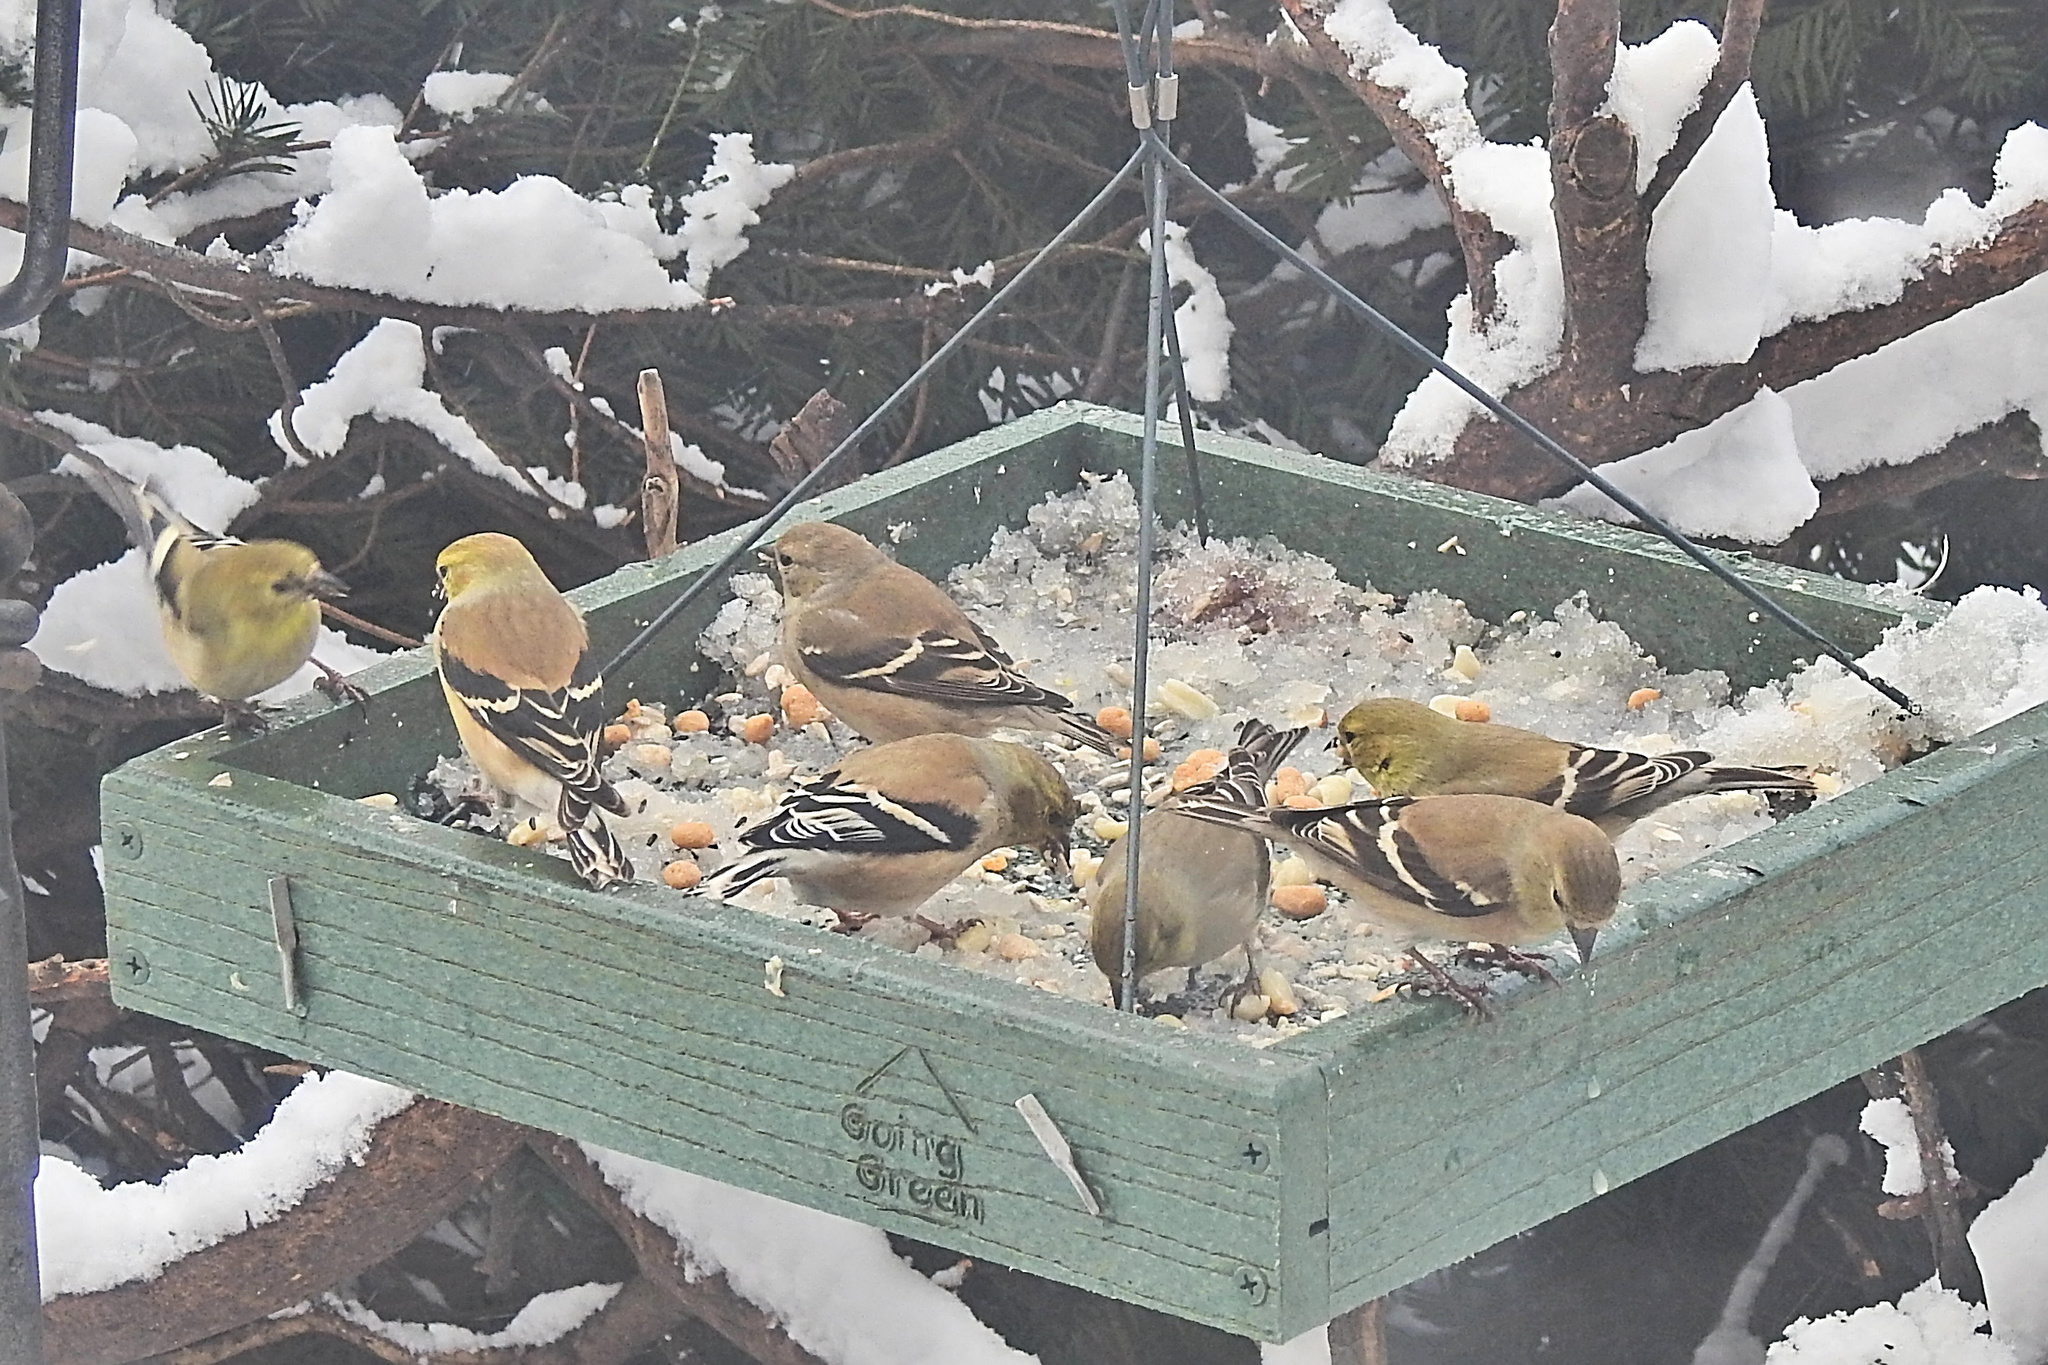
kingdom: Animalia
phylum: Chordata
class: Aves
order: Passeriformes
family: Fringillidae
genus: Spinus
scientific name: Spinus tristis
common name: American goldfinch
